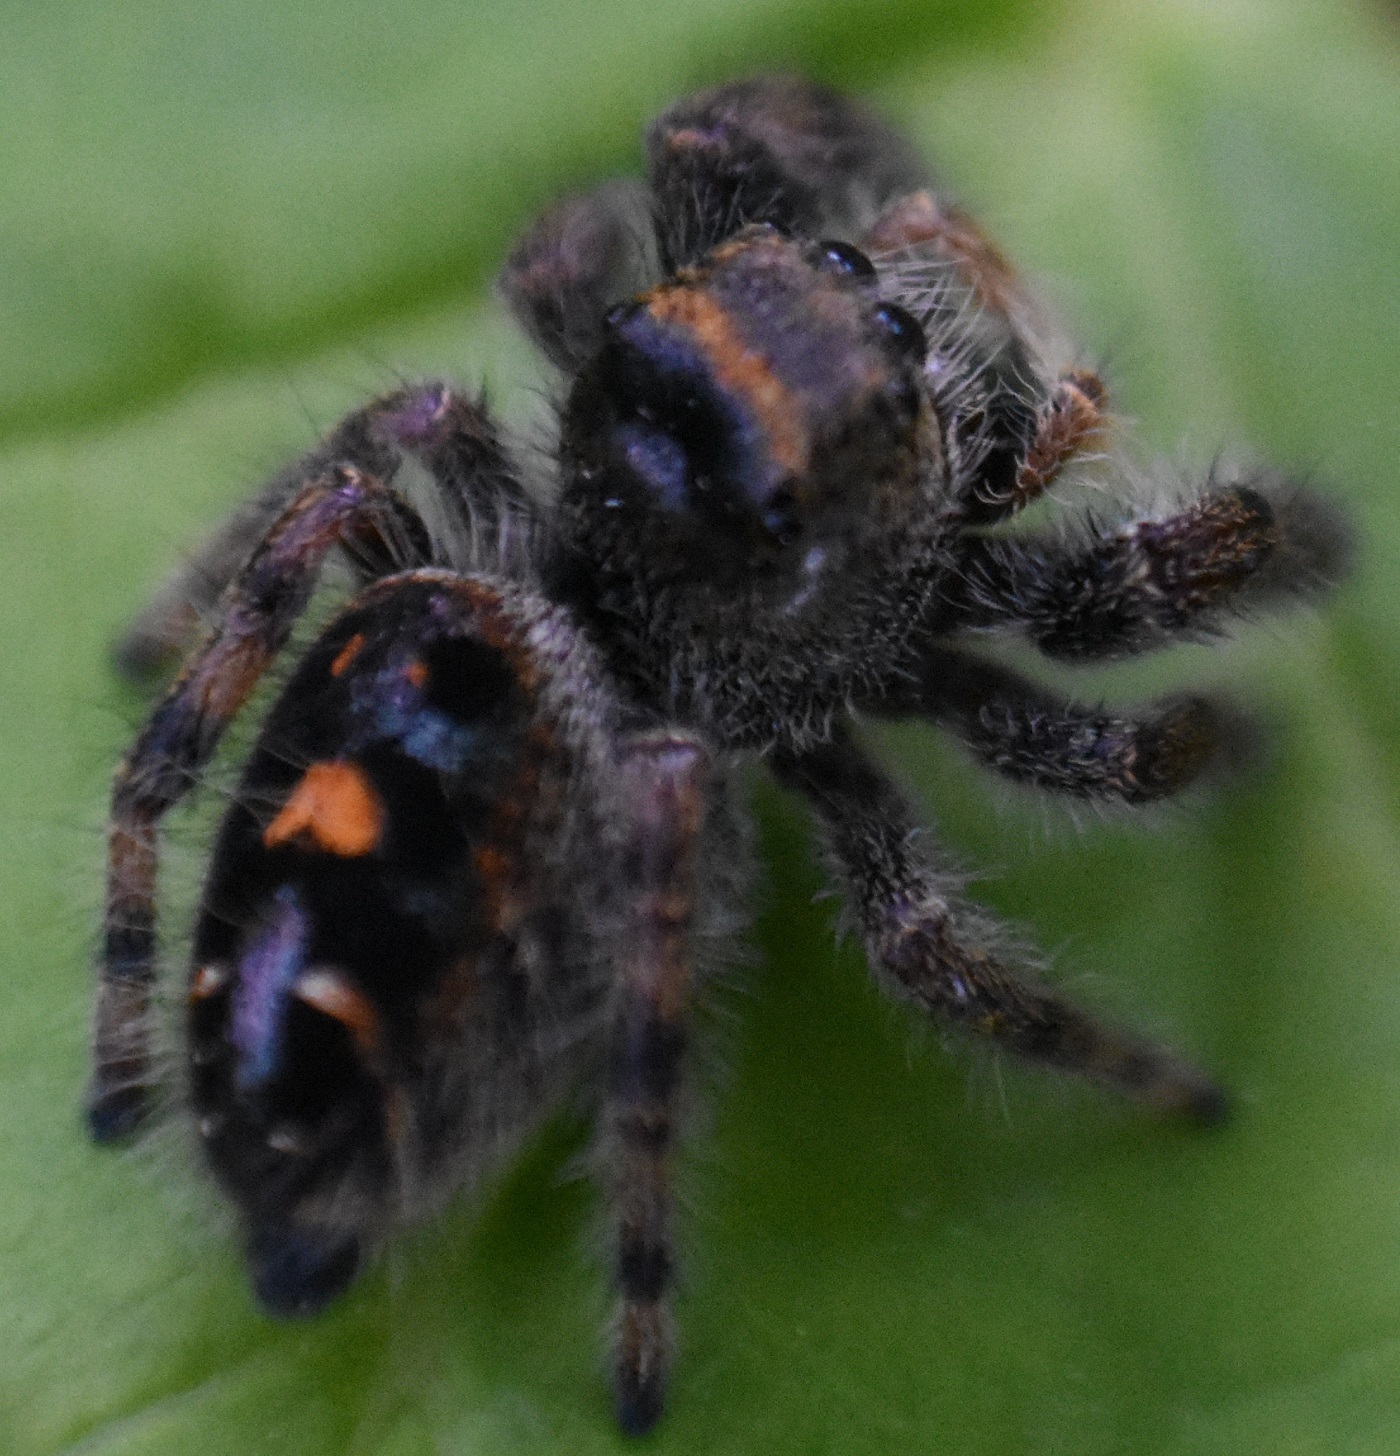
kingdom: Animalia
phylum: Arthropoda
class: Arachnida
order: Araneae
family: Salticidae
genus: Phidippus
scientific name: Phidippus audax
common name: Bold jumper
